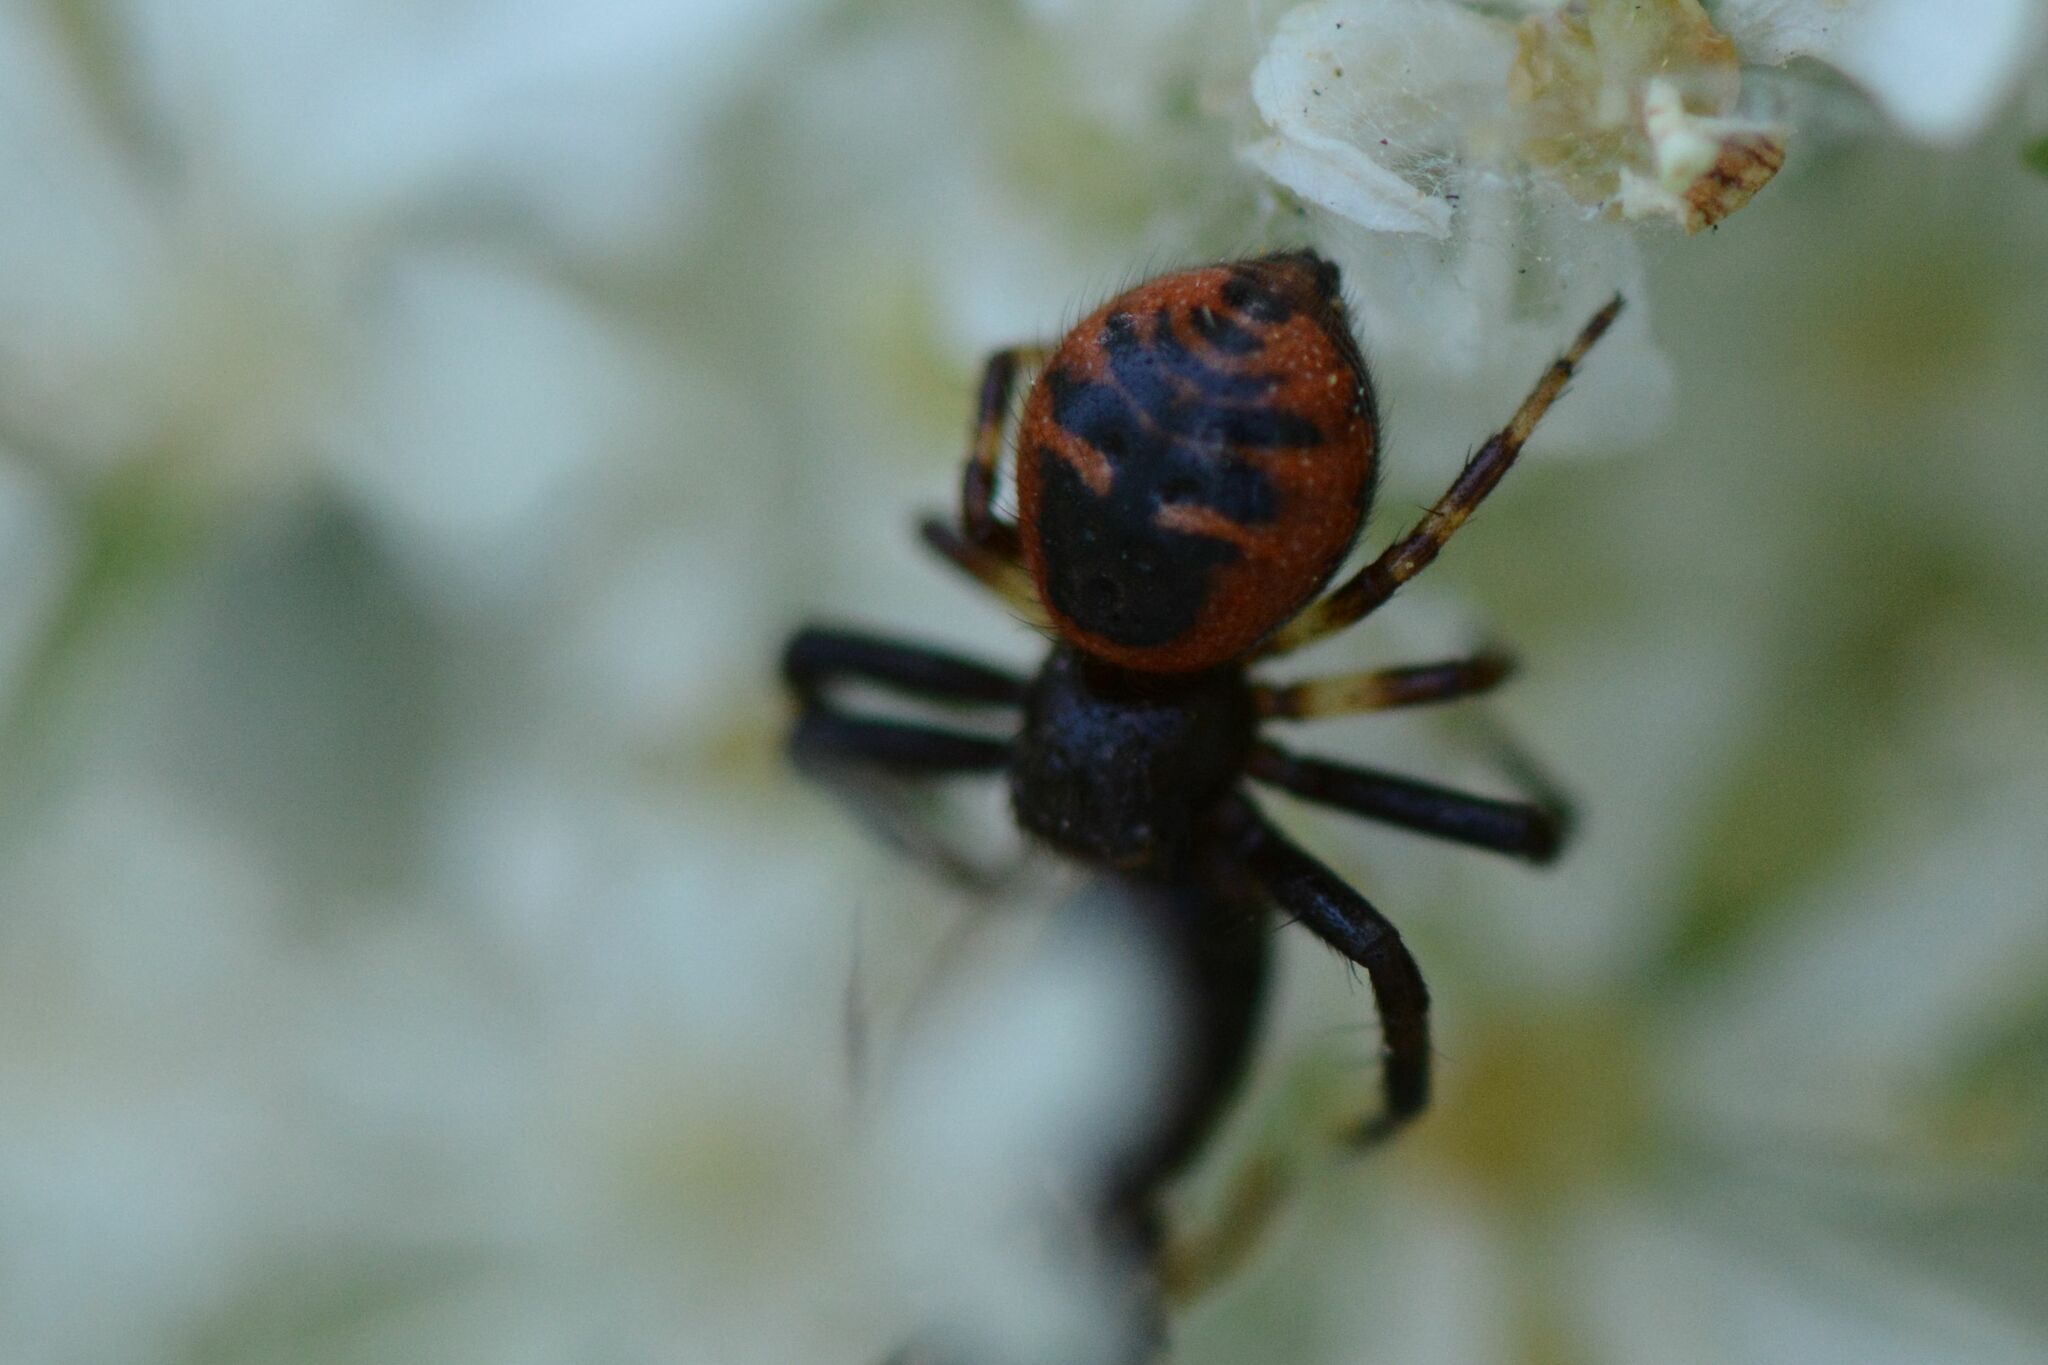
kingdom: Animalia
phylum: Arthropoda
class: Arachnida
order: Araneae
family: Thomisidae
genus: Synema
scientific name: Synema globosum
